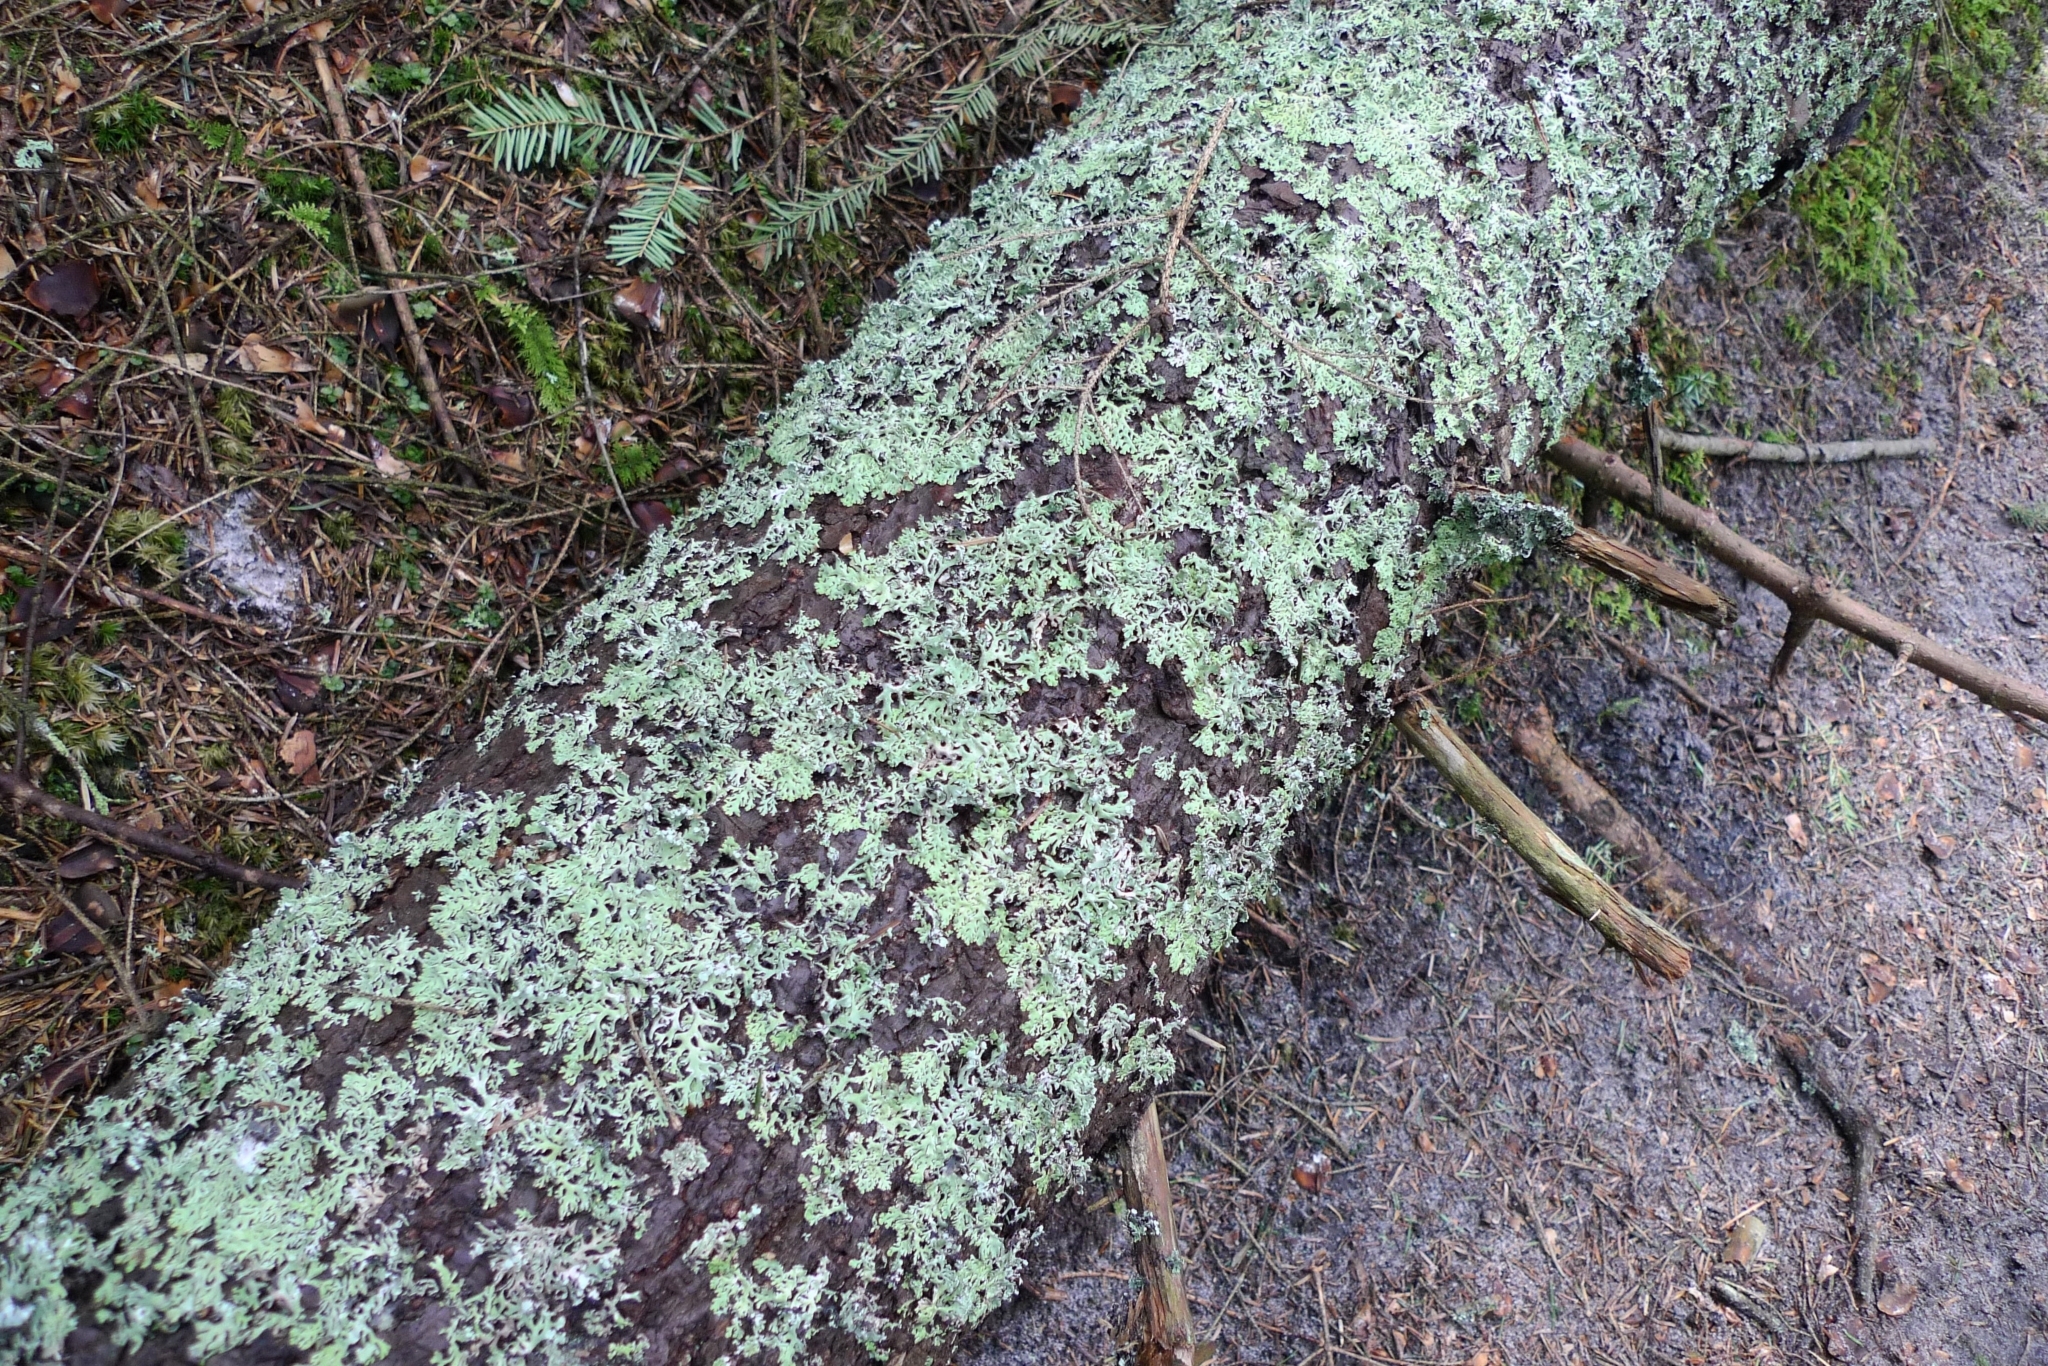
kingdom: Fungi
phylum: Ascomycota
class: Lecanoromycetes
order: Lecanorales
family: Parmeliaceae
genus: Hypogymnia
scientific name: Hypogymnia physodes
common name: Dark crottle
